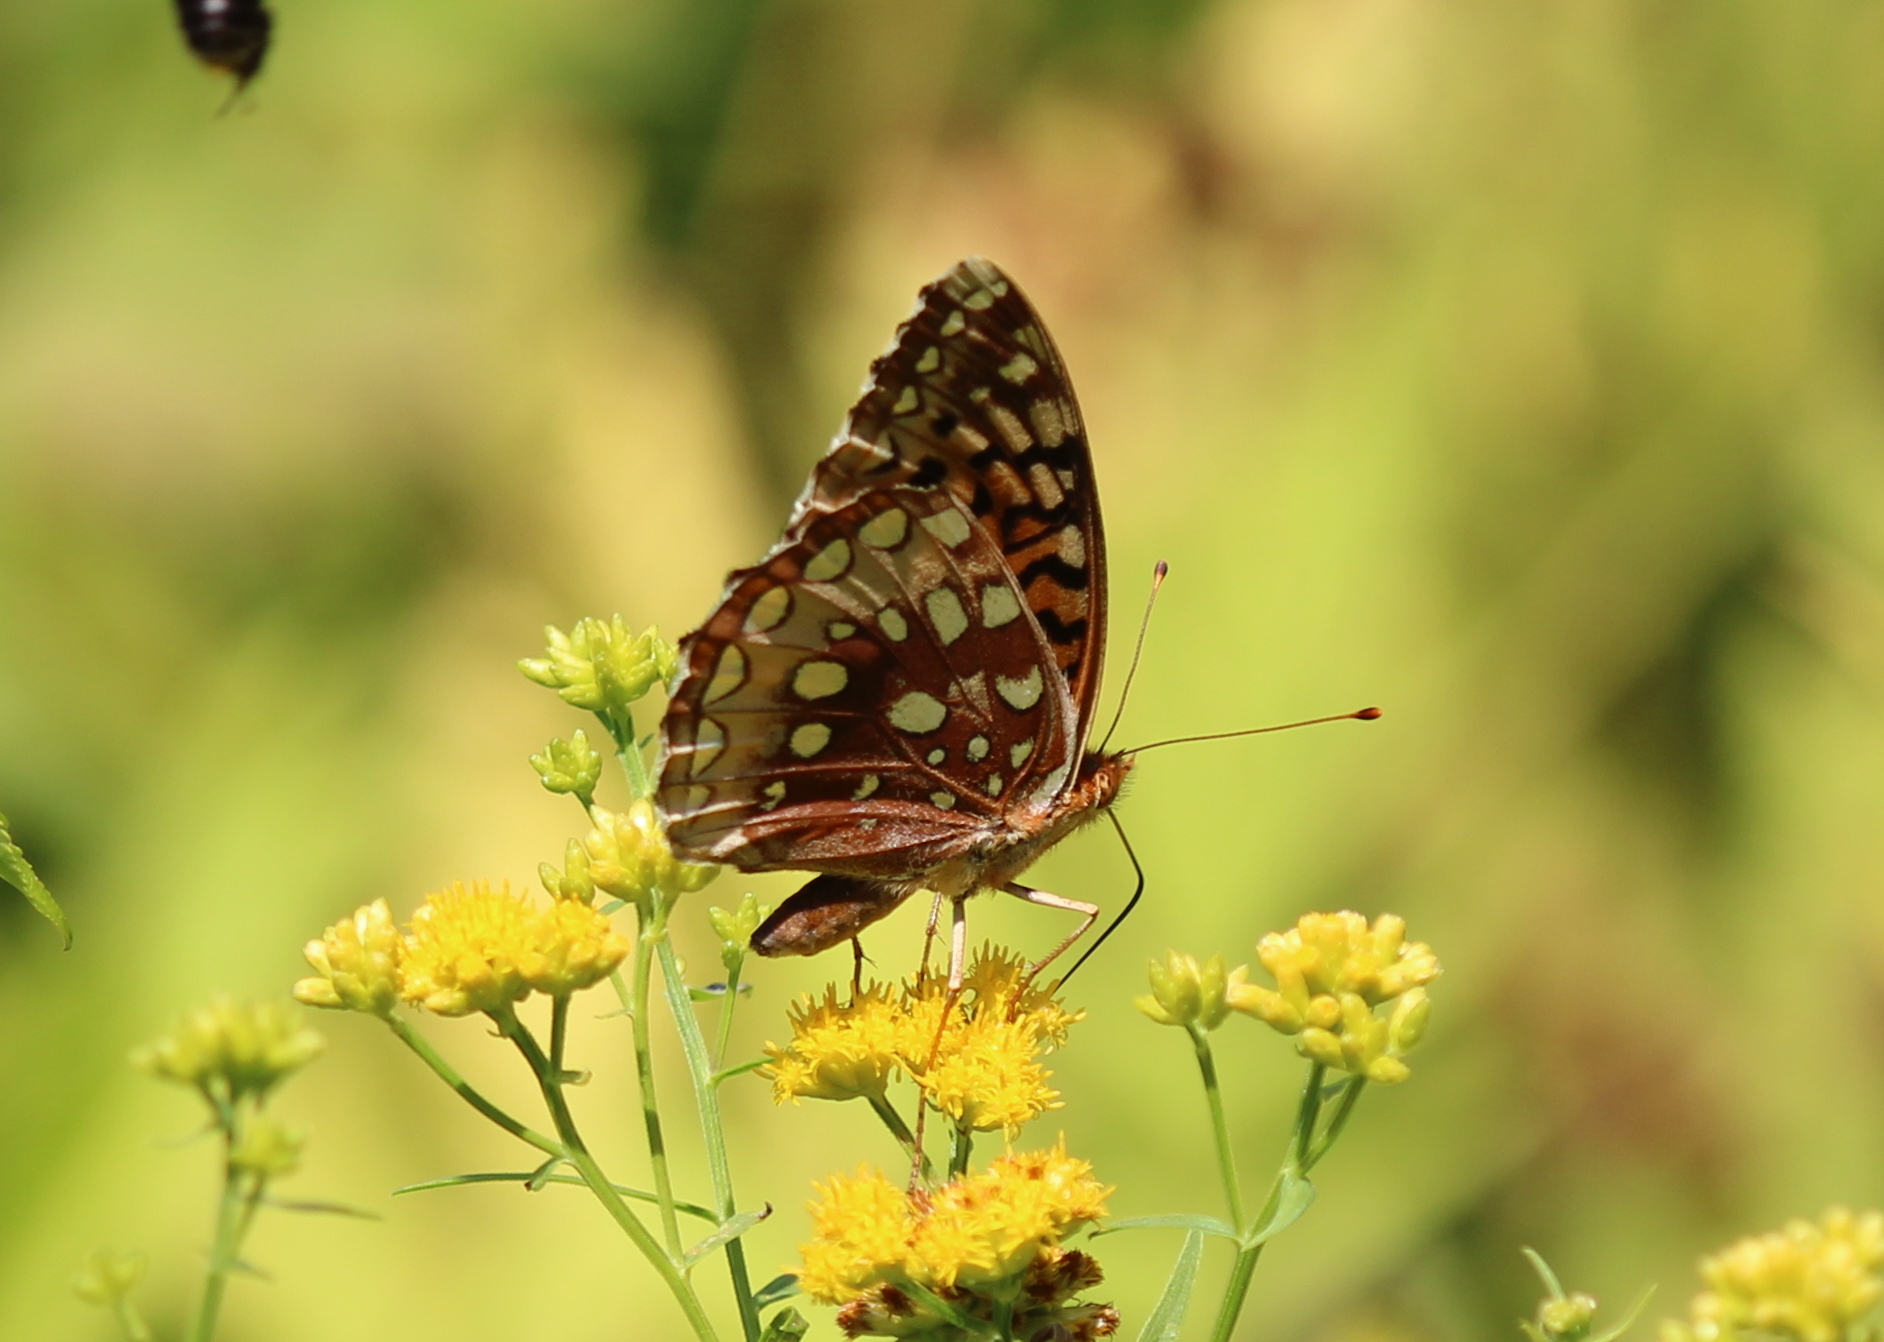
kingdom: Animalia
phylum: Arthropoda
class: Insecta
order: Lepidoptera
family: Nymphalidae
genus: Speyeria
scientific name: Speyeria cybele
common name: Great spangled fritillary
